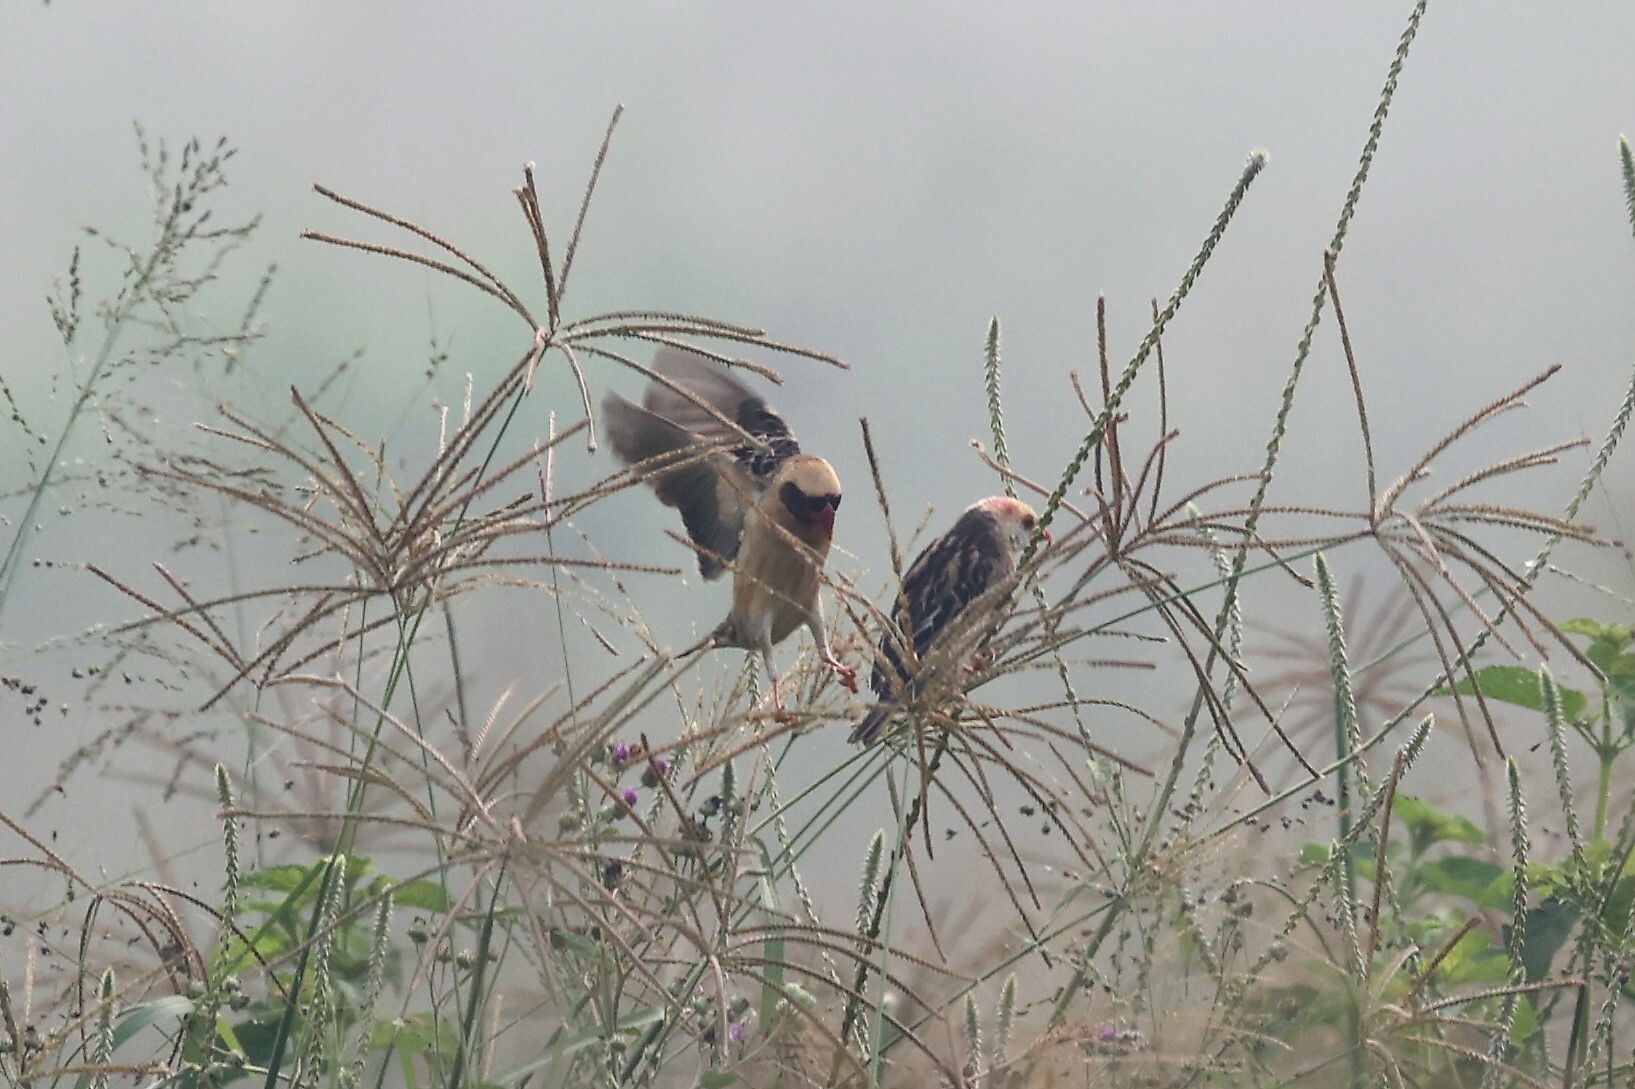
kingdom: Animalia
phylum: Chordata
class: Aves
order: Passeriformes
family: Ploceidae
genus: Quelea
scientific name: Quelea quelea
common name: Red-billed quelea
